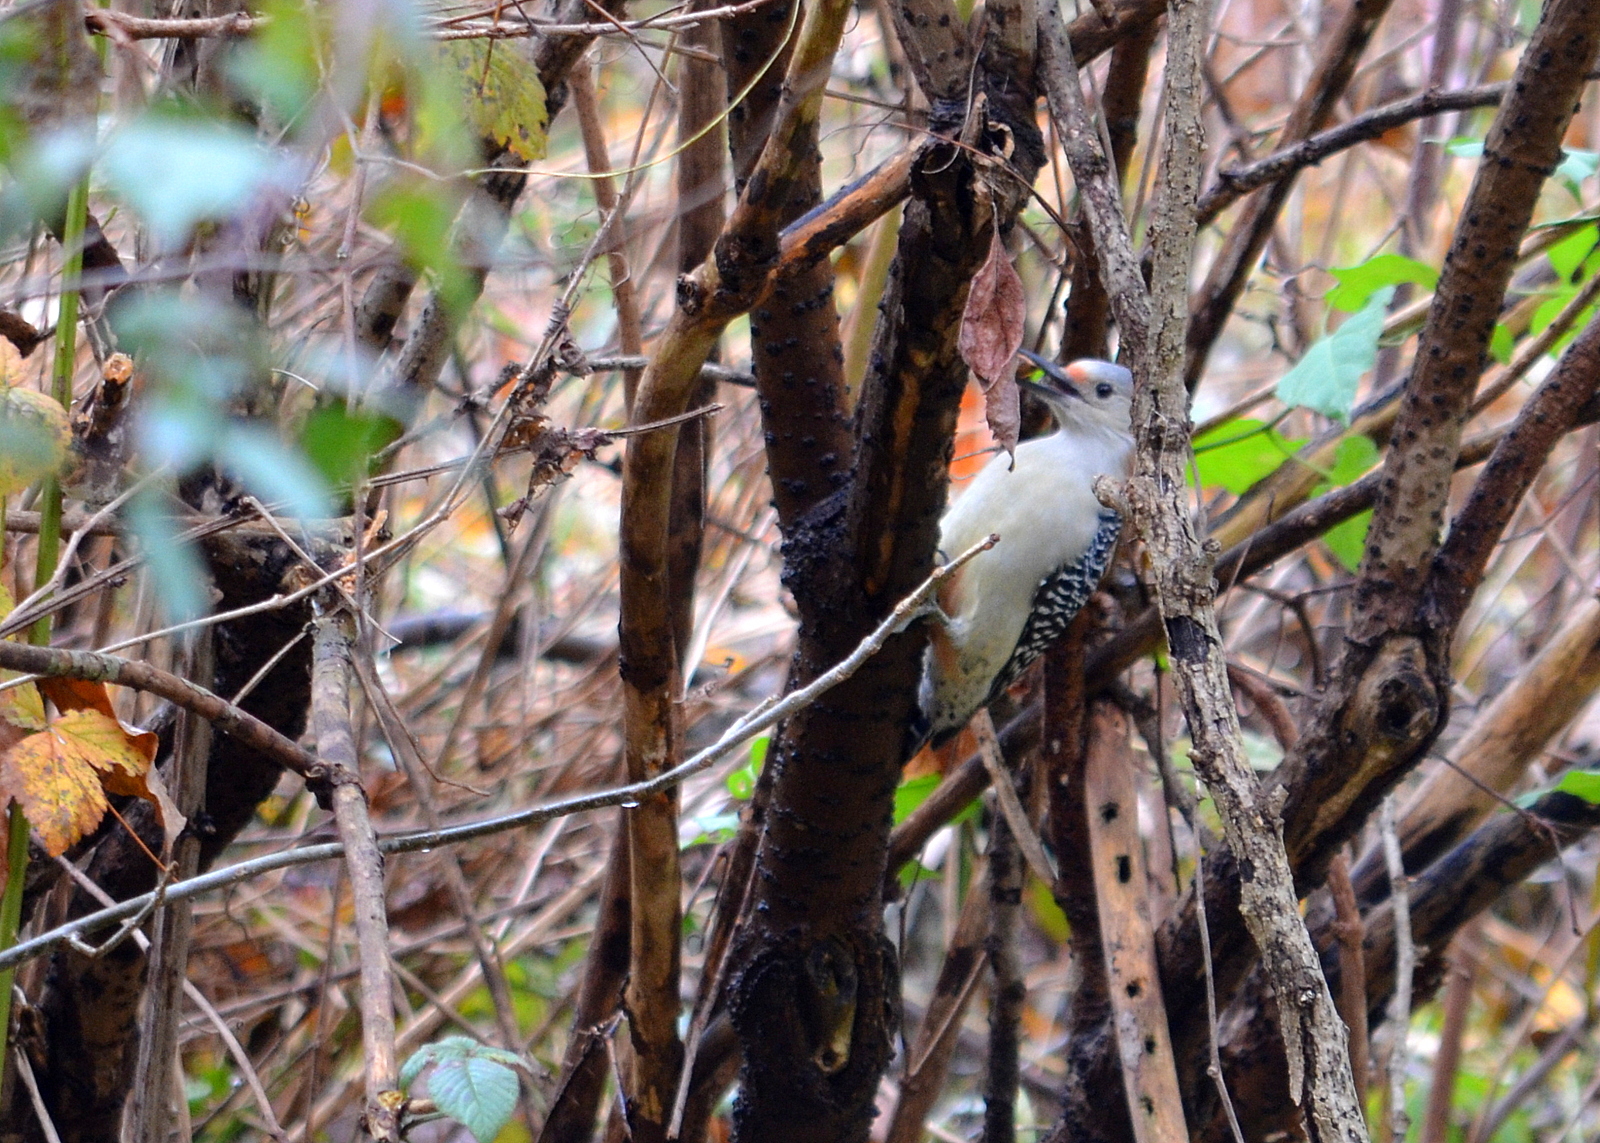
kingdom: Animalia
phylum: Chordata
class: Aves
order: Piciformes
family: Picidae
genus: Melanerpes
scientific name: Melanerpes carolinus
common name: Red-bellied woodpecker
